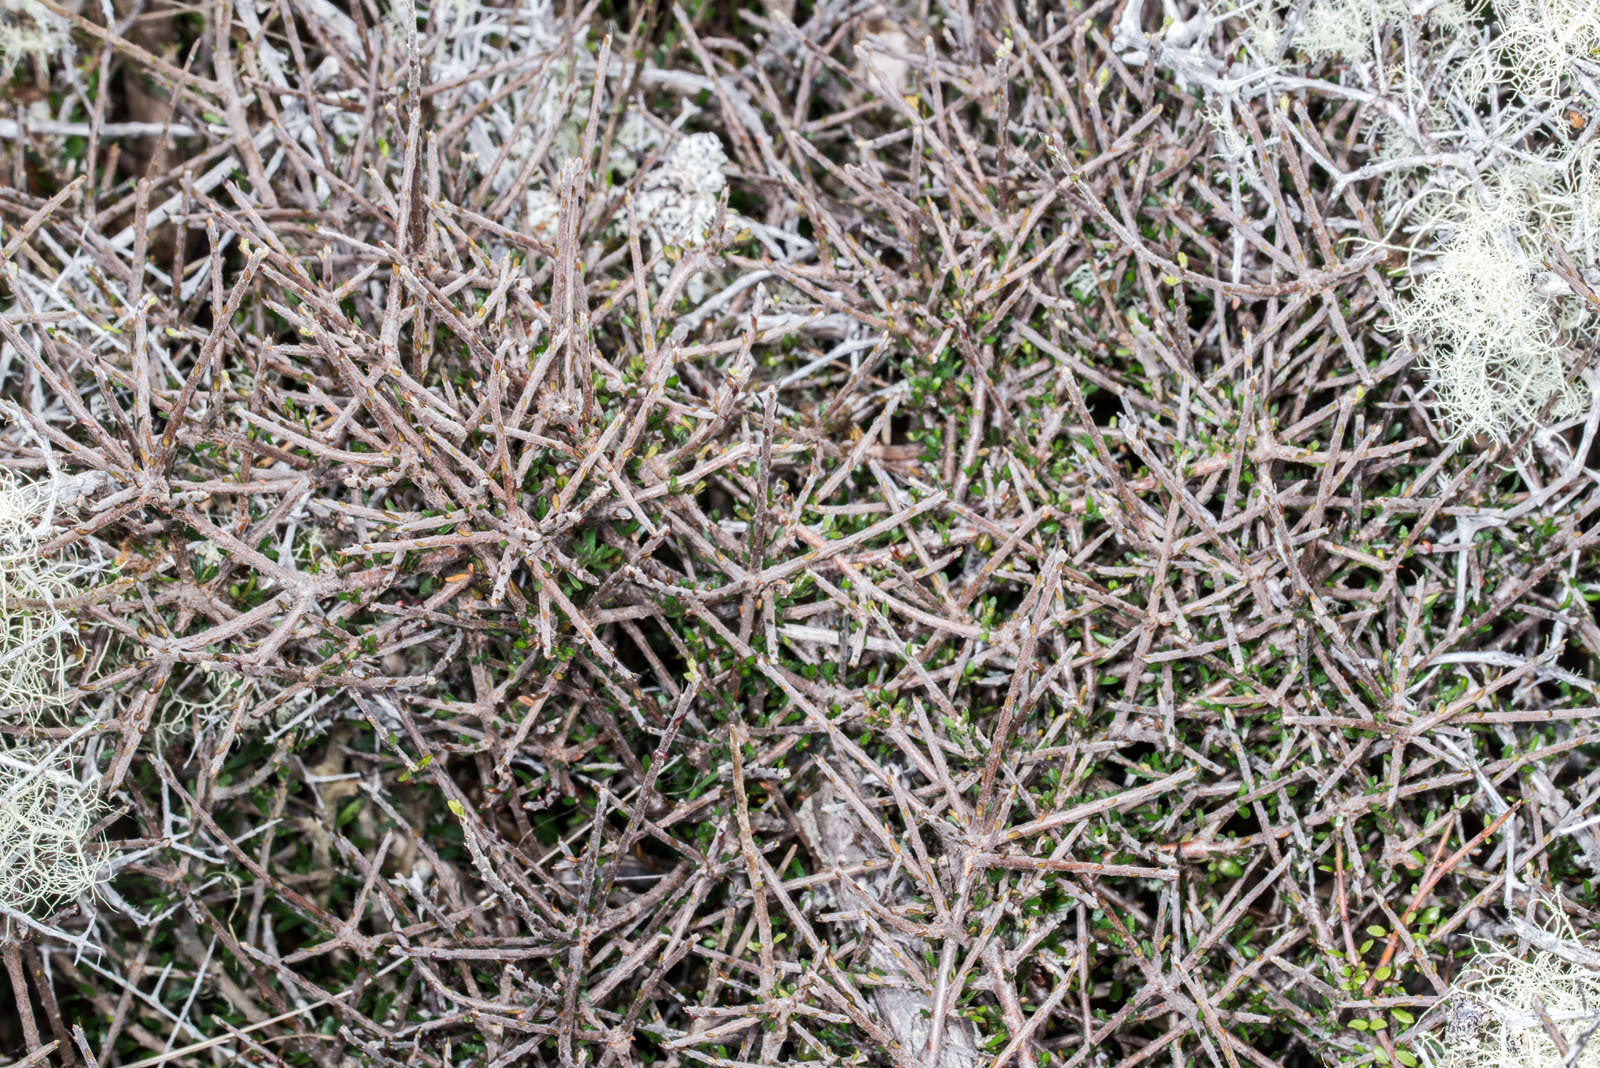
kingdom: Plantae
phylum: Tracheophyta
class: Magnoliopsida
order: Apiales
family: Pittosporaceae
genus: Pittosporum
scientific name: Pittosporum anomalum
